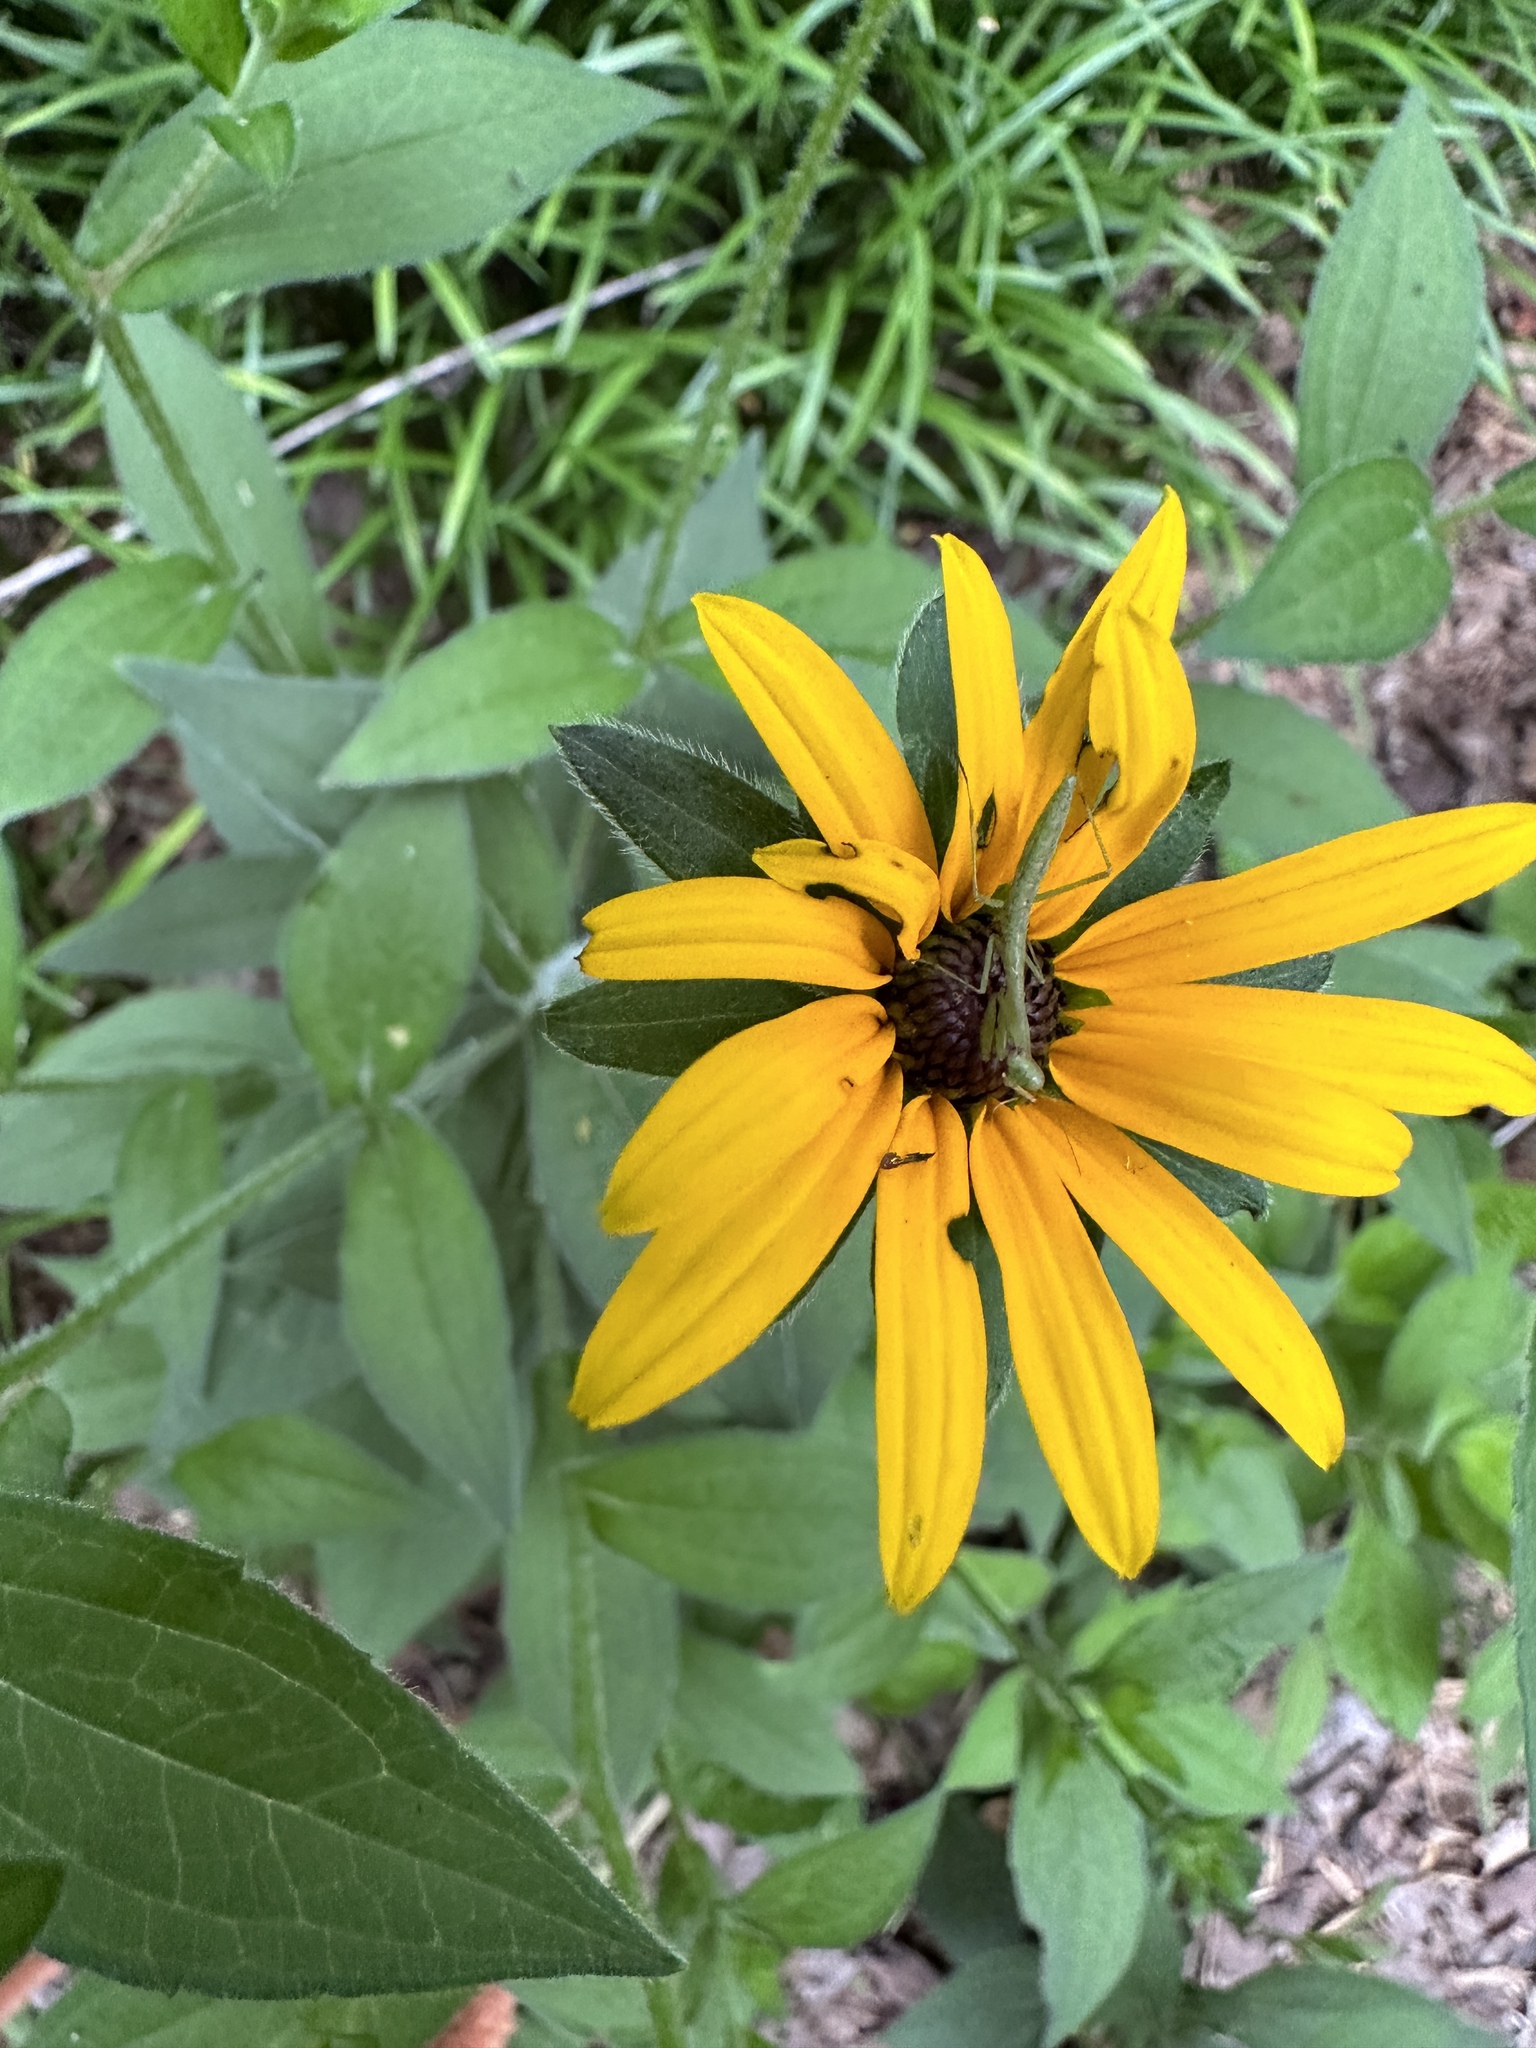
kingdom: Animalia
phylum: Arthropoda
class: Insecta
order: Mantodea
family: Mantidae
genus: Stagmomantis
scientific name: Stagmomantis carolina
